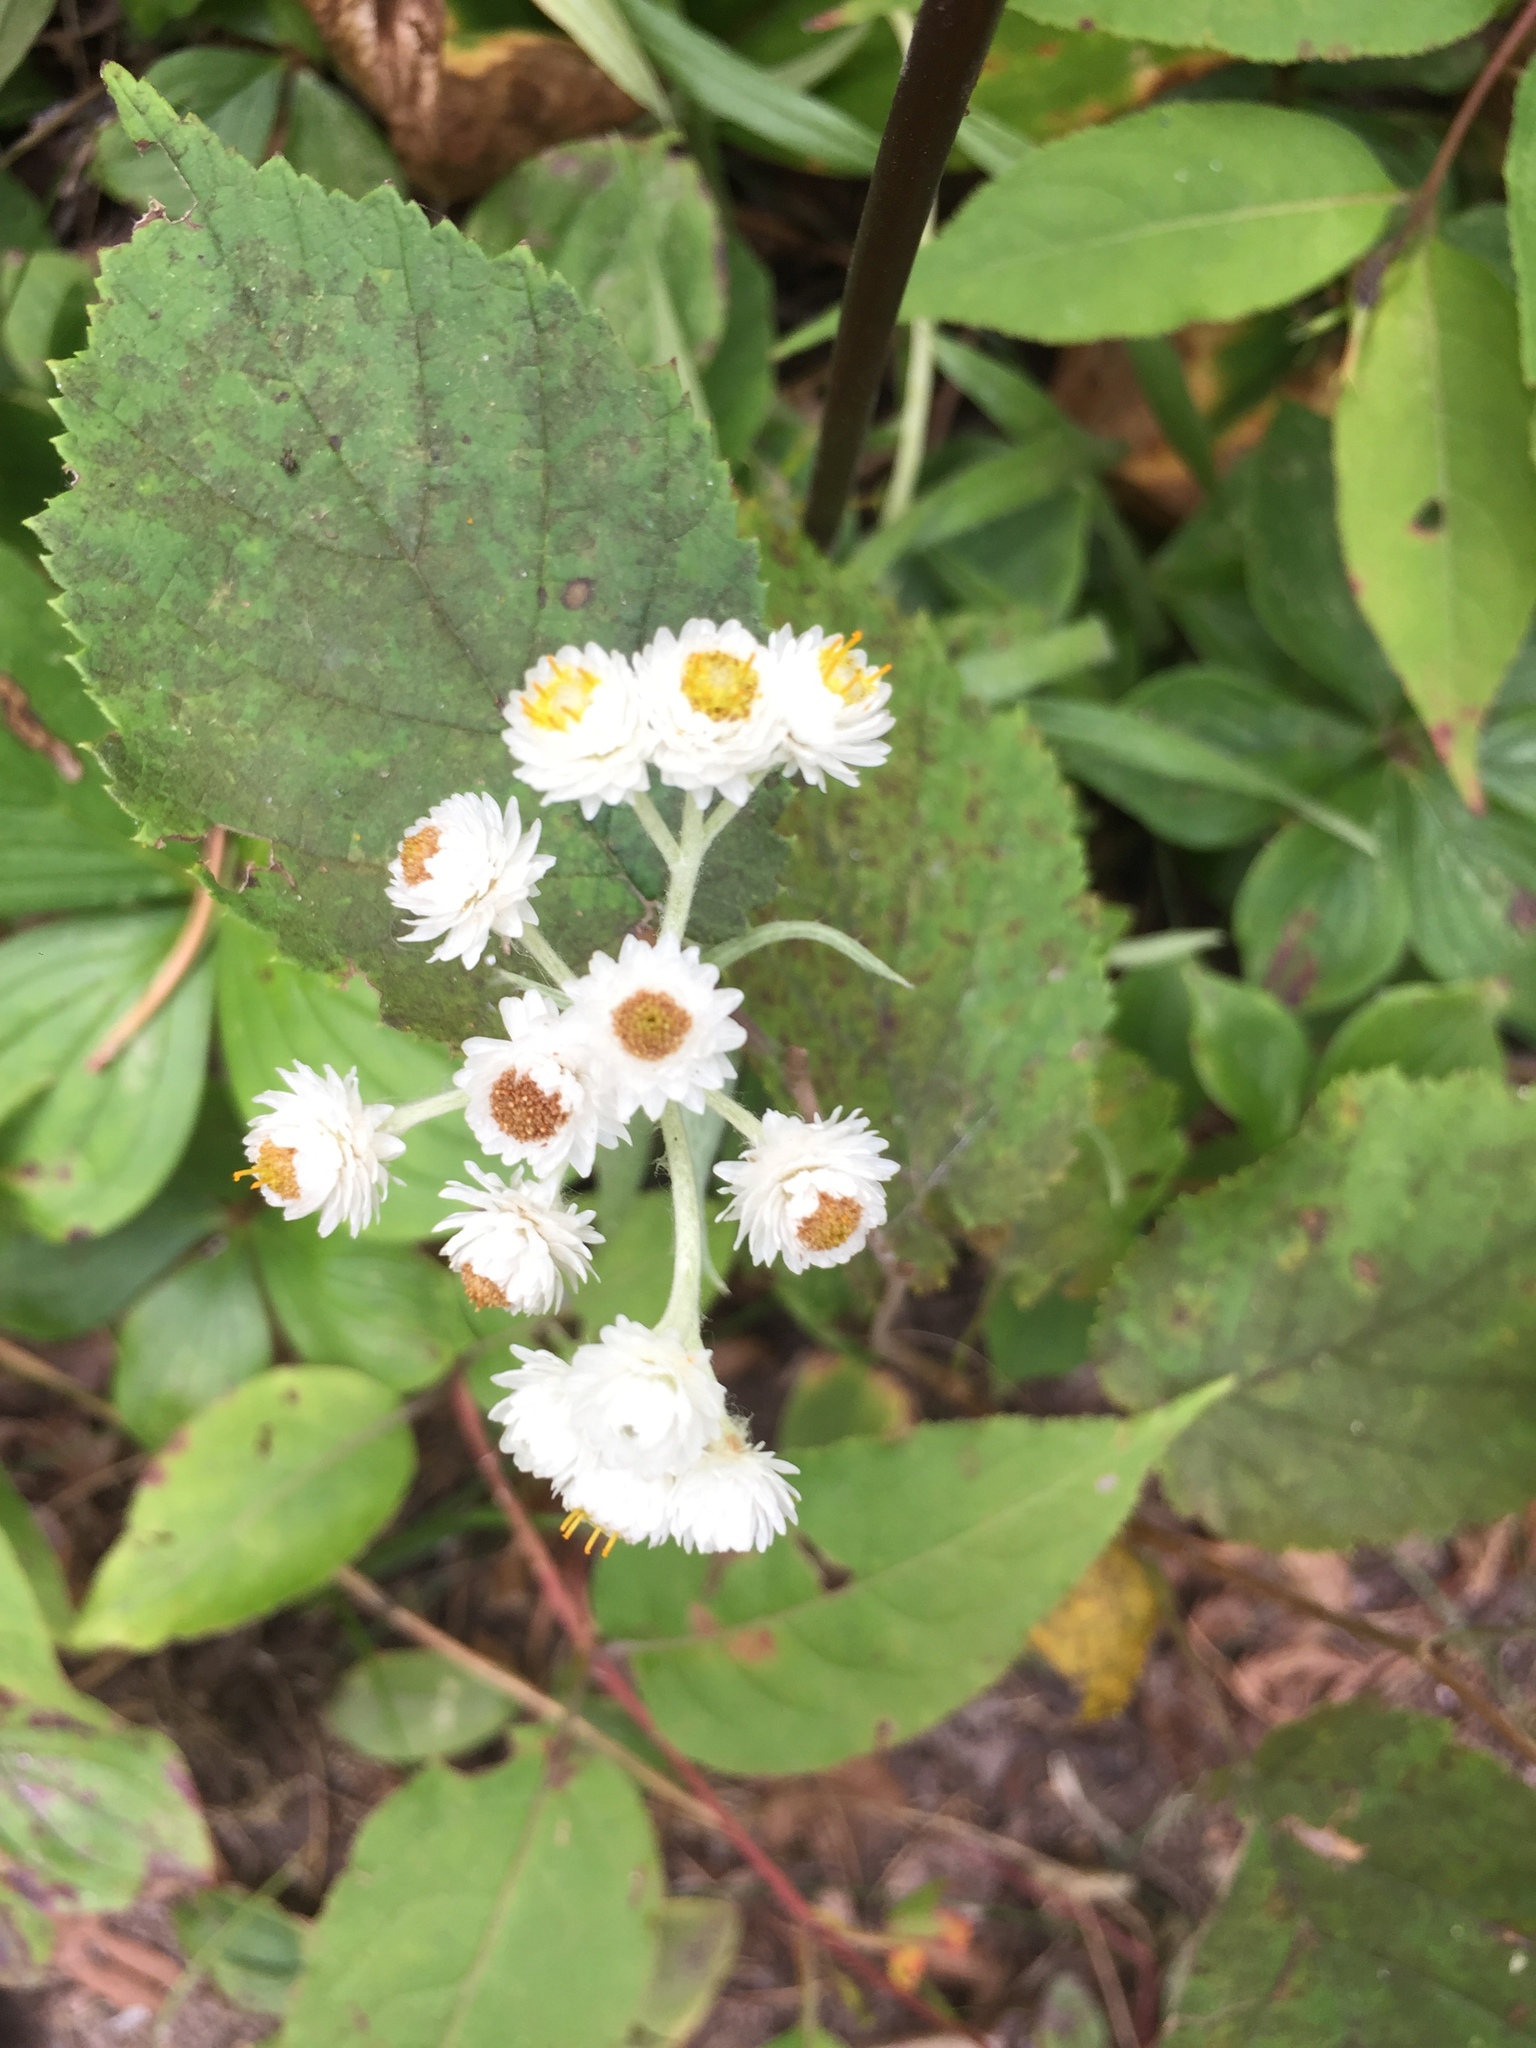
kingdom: Plantae
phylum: Tracheophyta
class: Magnoliopsida
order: Asterales
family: Asteraceae
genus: Anaphalis
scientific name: Anaphalis margaritacea
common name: Pearly everlasting
